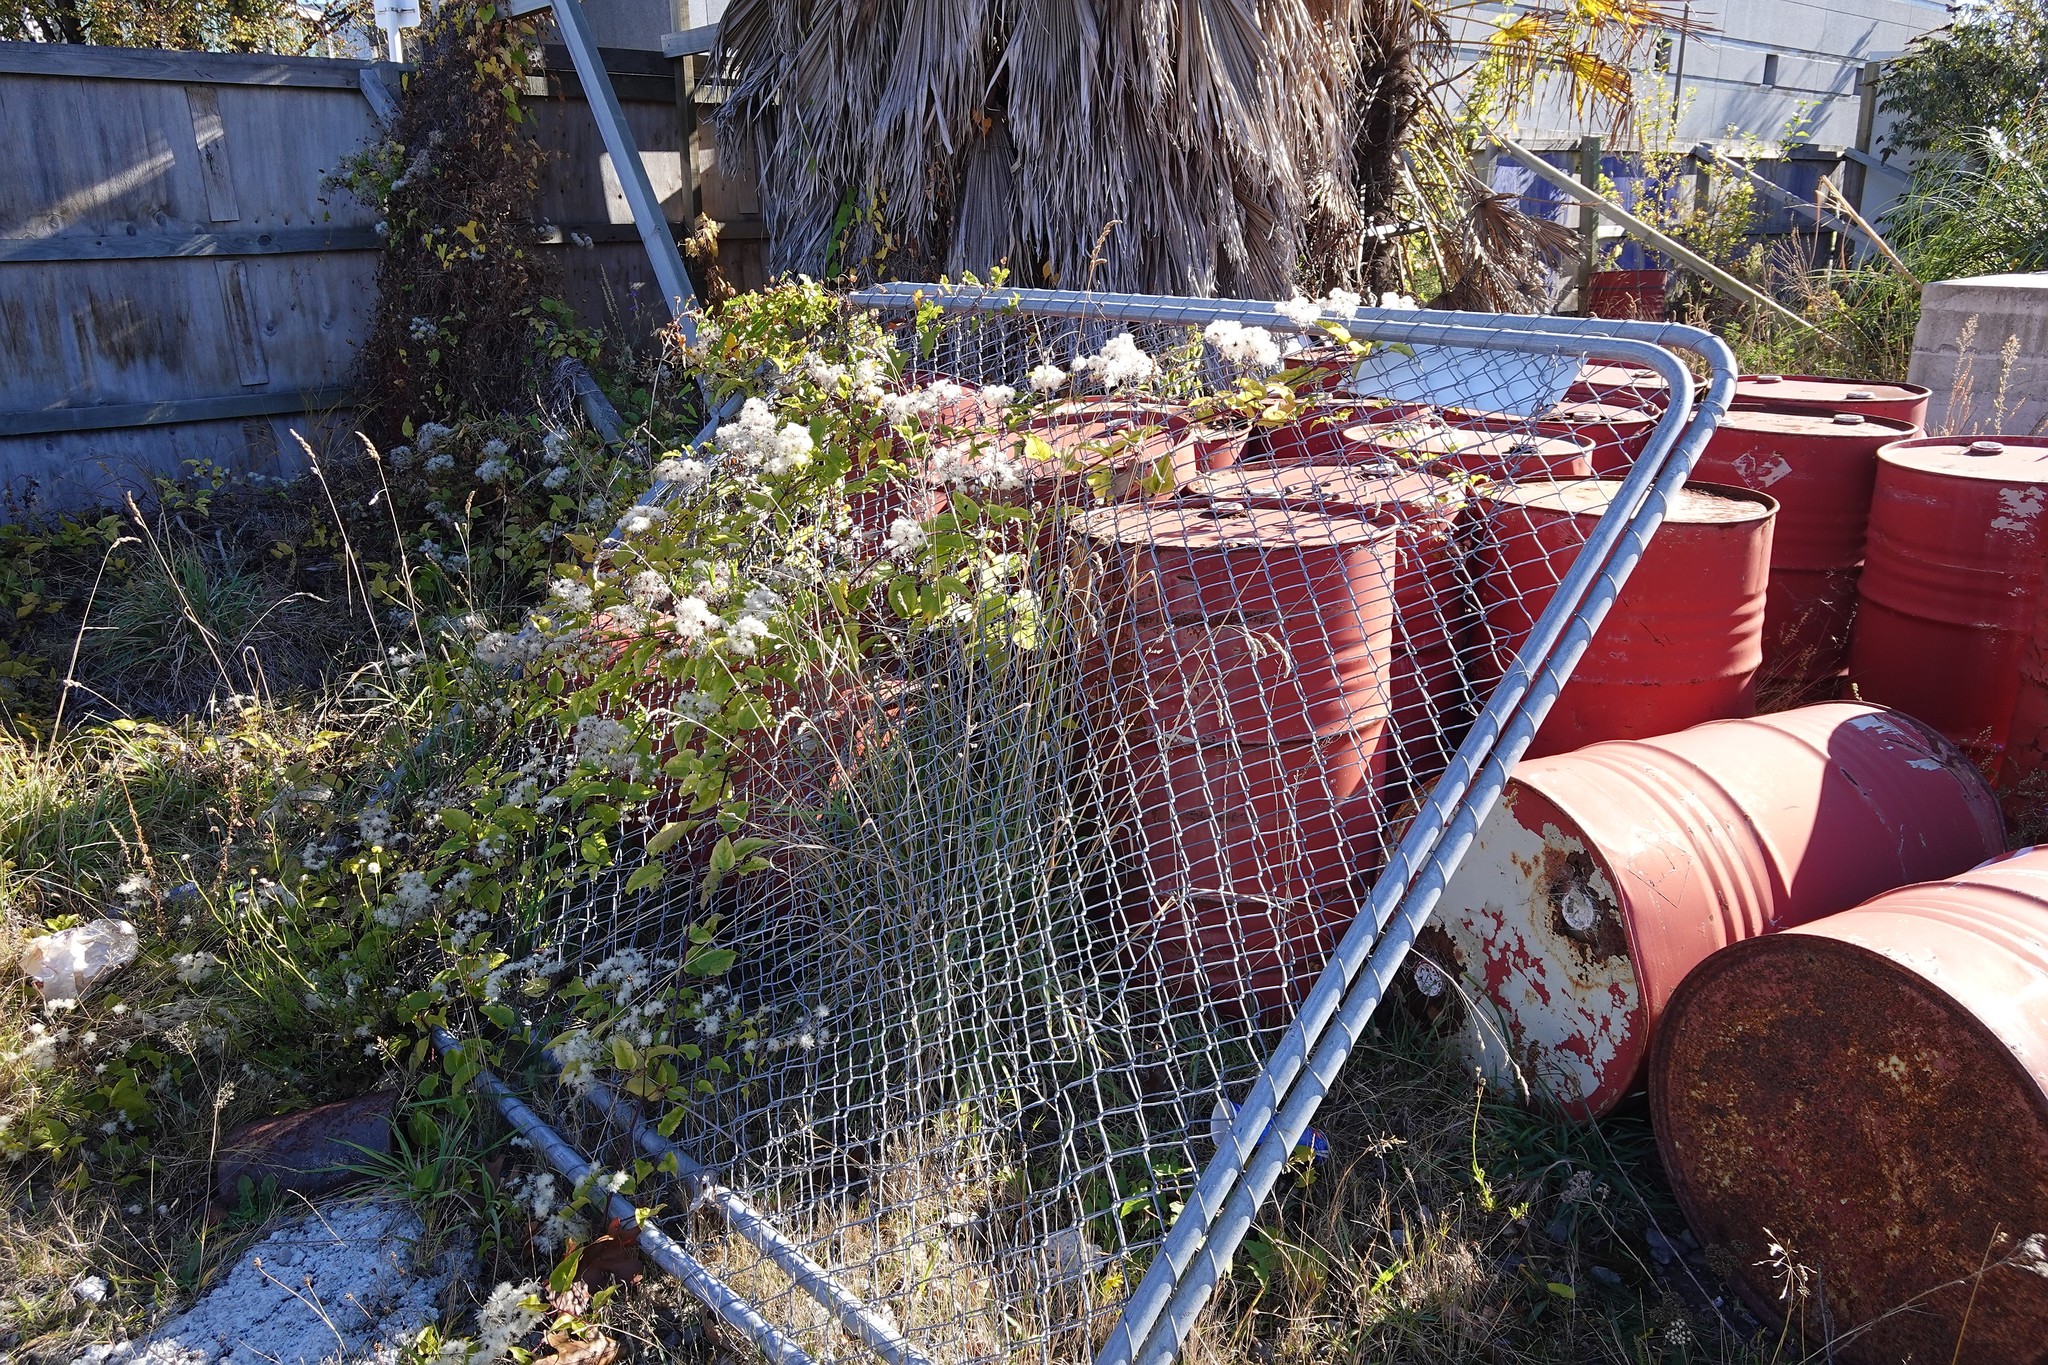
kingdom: Plantae
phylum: Tracheophyta
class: Magnoliopsida
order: Ranunculales
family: Ranunculaceae
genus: Clematis
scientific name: Clematis vitalba
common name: Evergreen clematis
